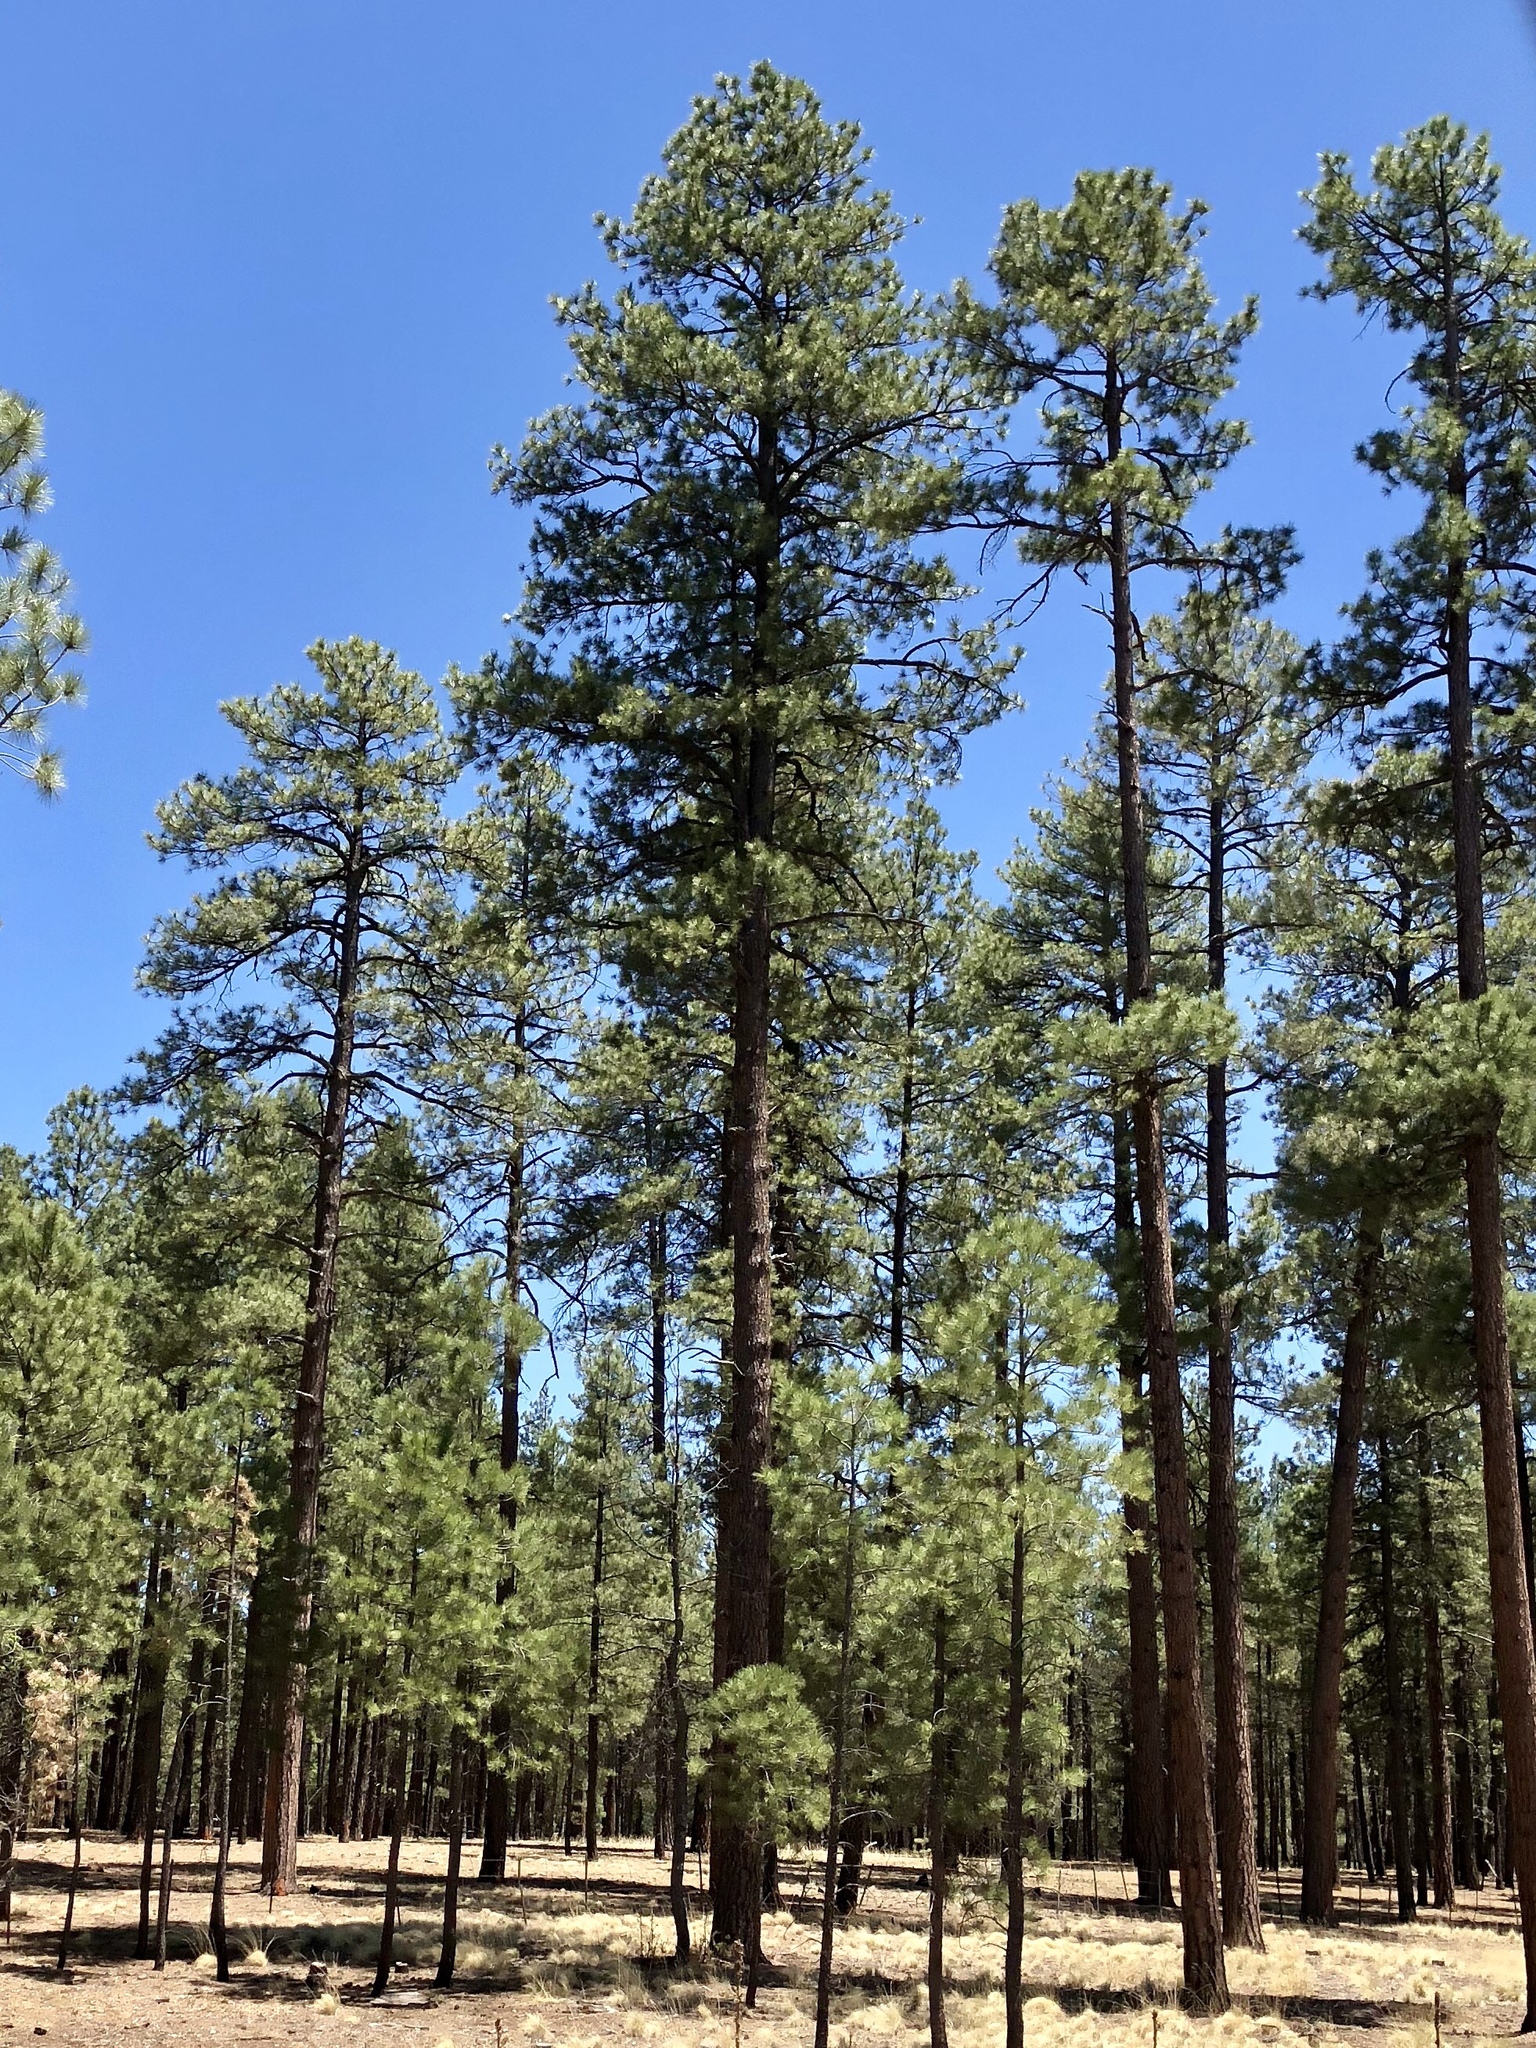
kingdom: Plantae
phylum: Tracheophyta
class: Pinopsida
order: Pinales
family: Pinaceae
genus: Pinus
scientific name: Pinus ponderosa
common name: Western yellow-pine
